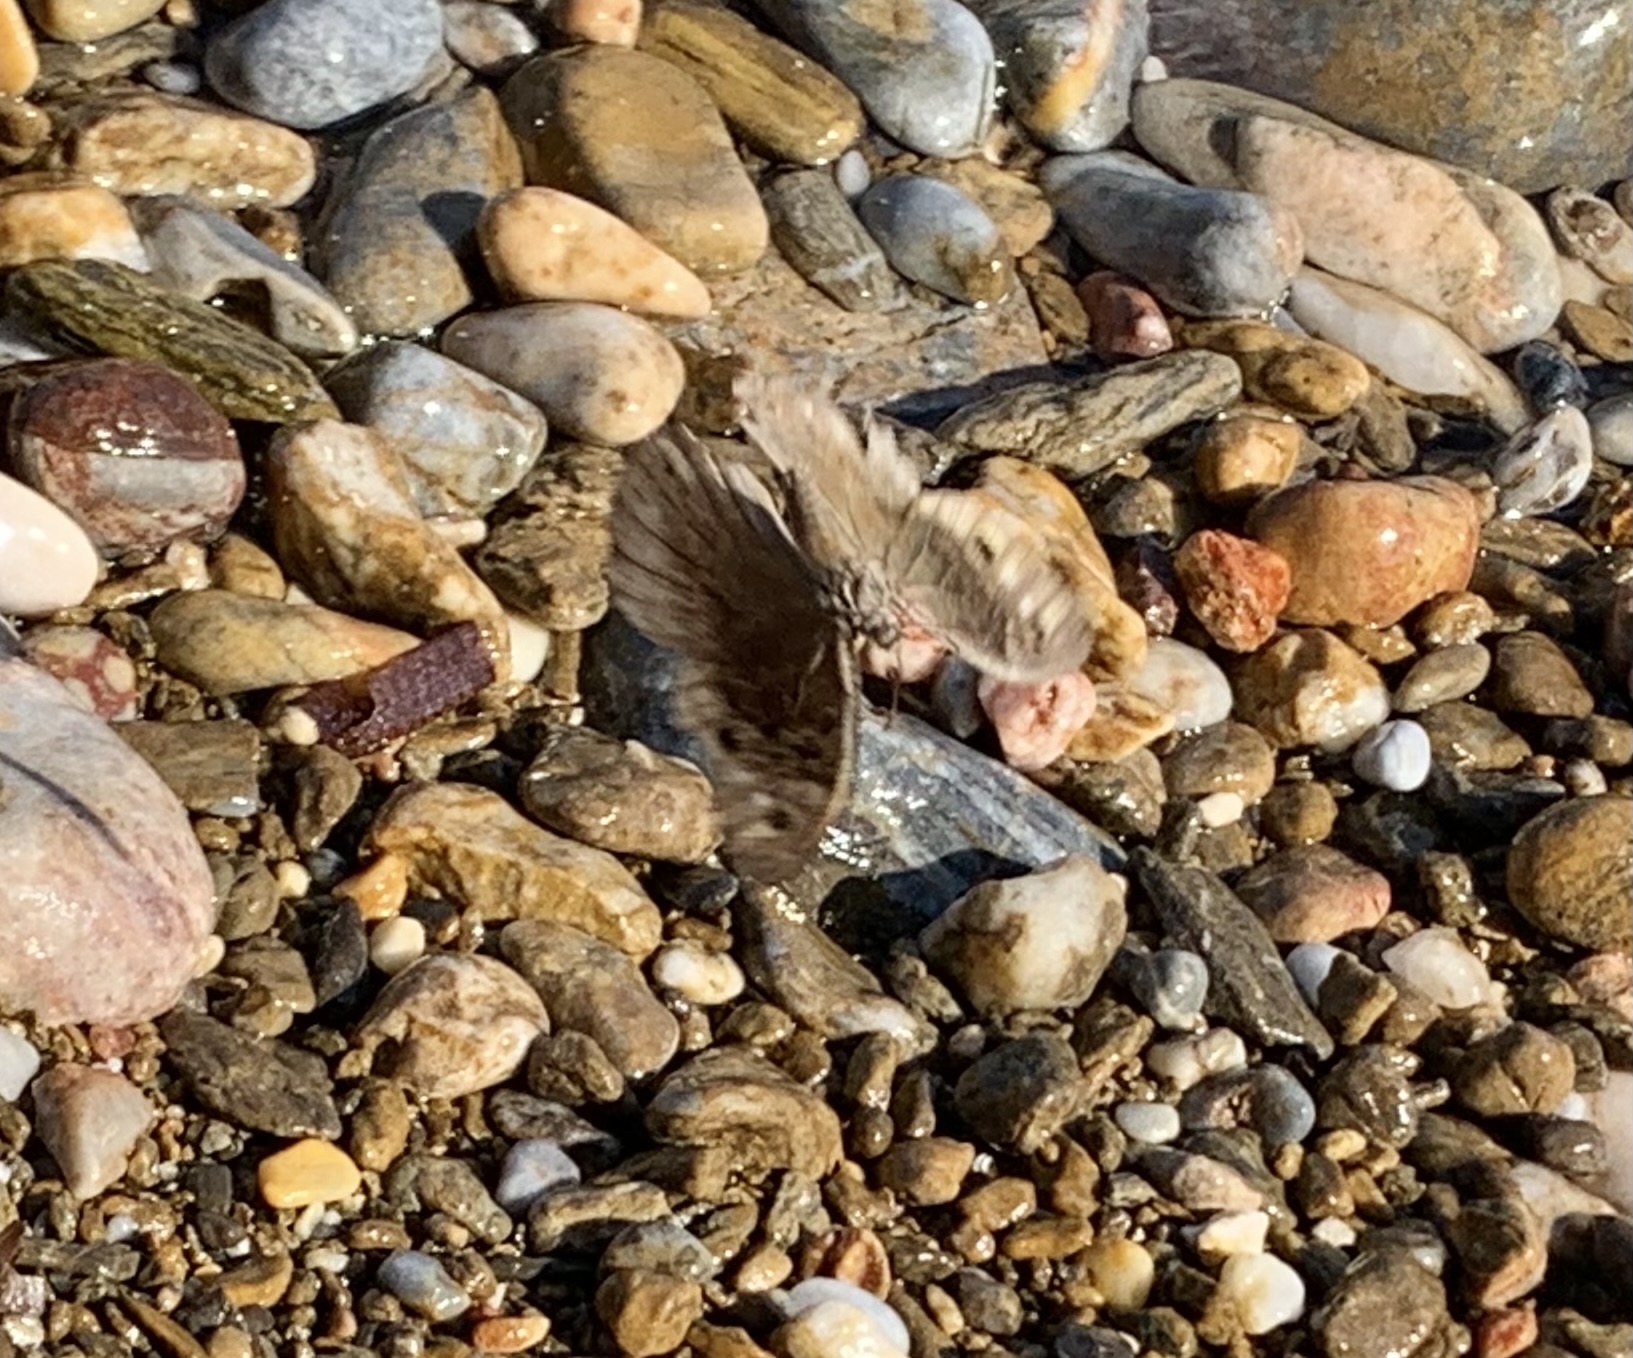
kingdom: Animalia
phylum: Arthropoda
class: Insecta
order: Lepidoptera
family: Nymphalidae
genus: Hipparchia
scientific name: Hipparchia fatua
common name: Freyer's grayling
